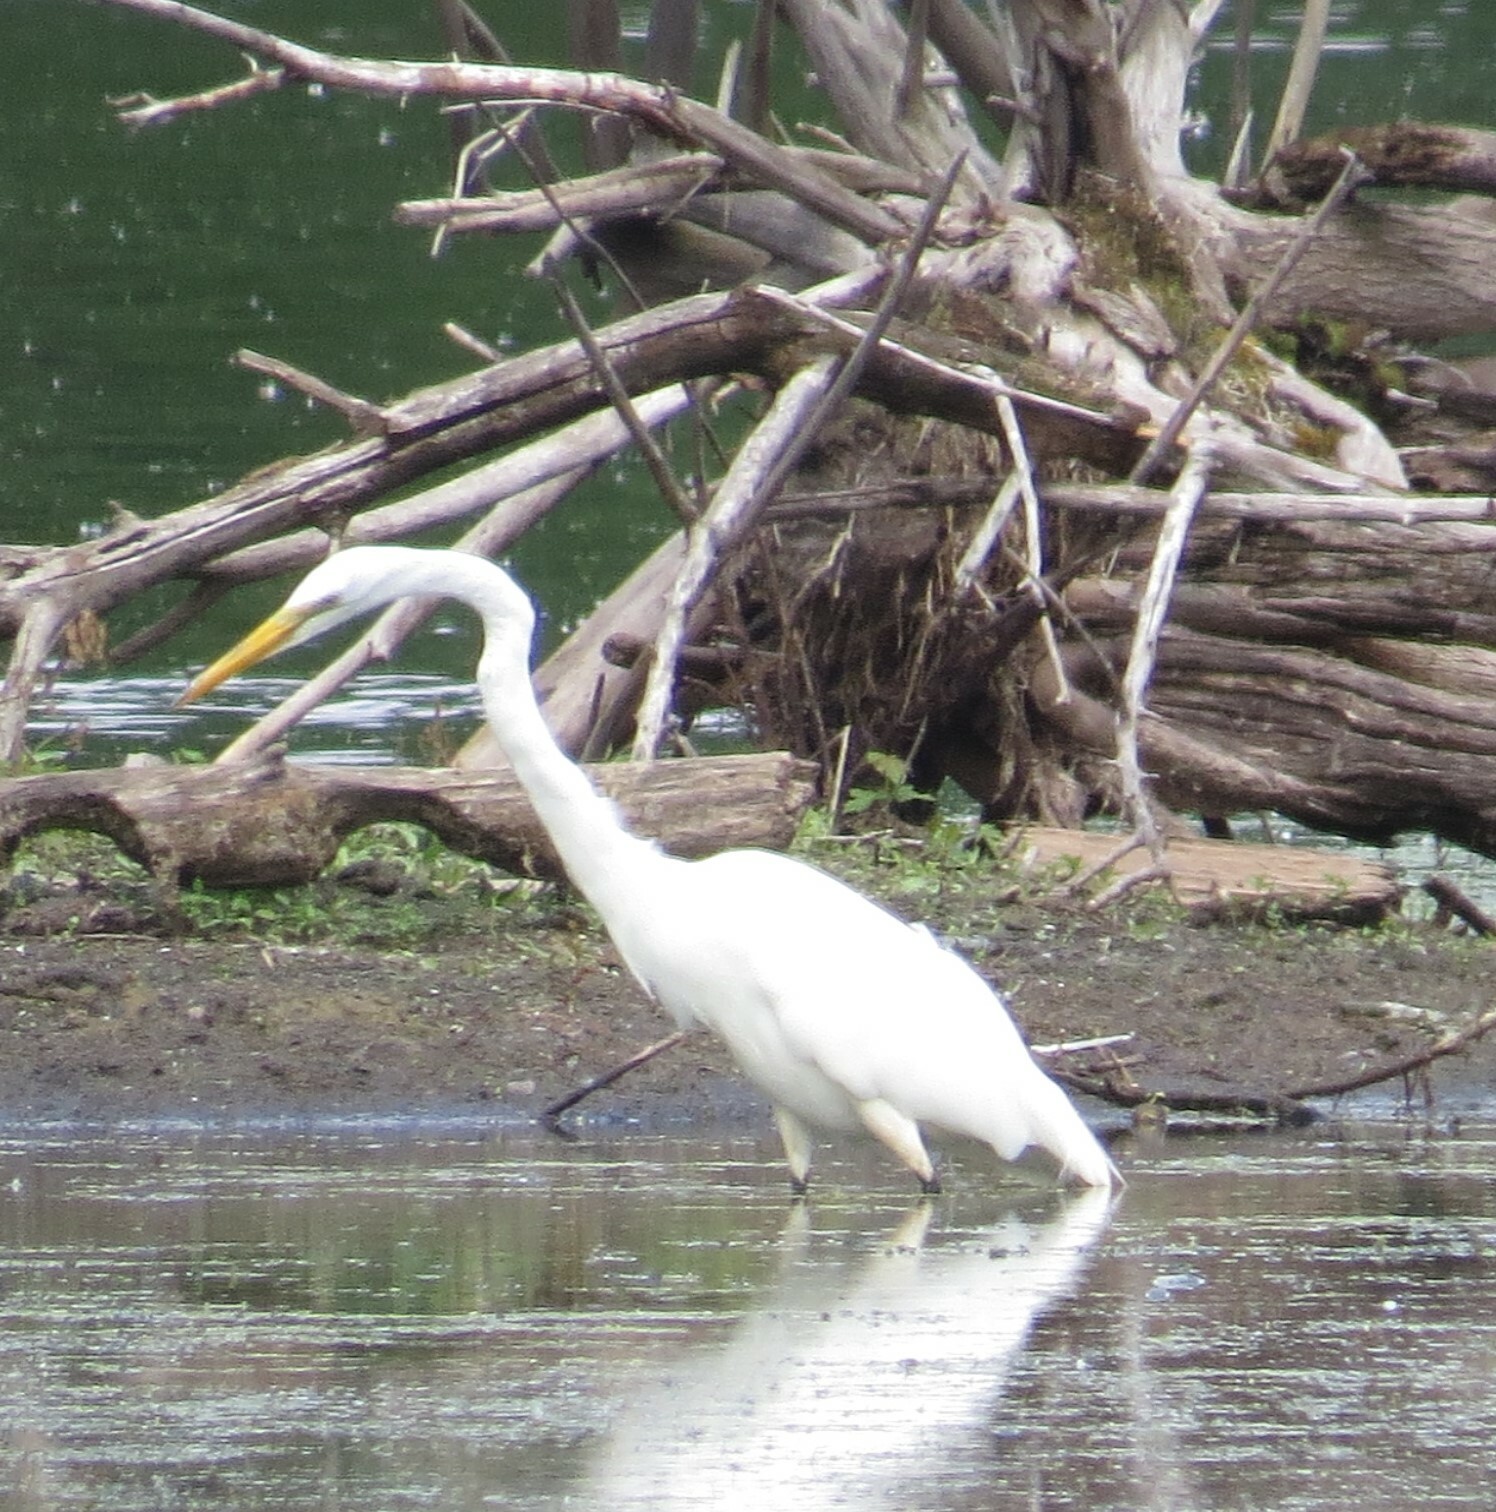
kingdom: Animalia
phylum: Chordata
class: Aves
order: Pelecaniformes
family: Ardeidae
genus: Ardea
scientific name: Ardea alba
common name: Great egret
